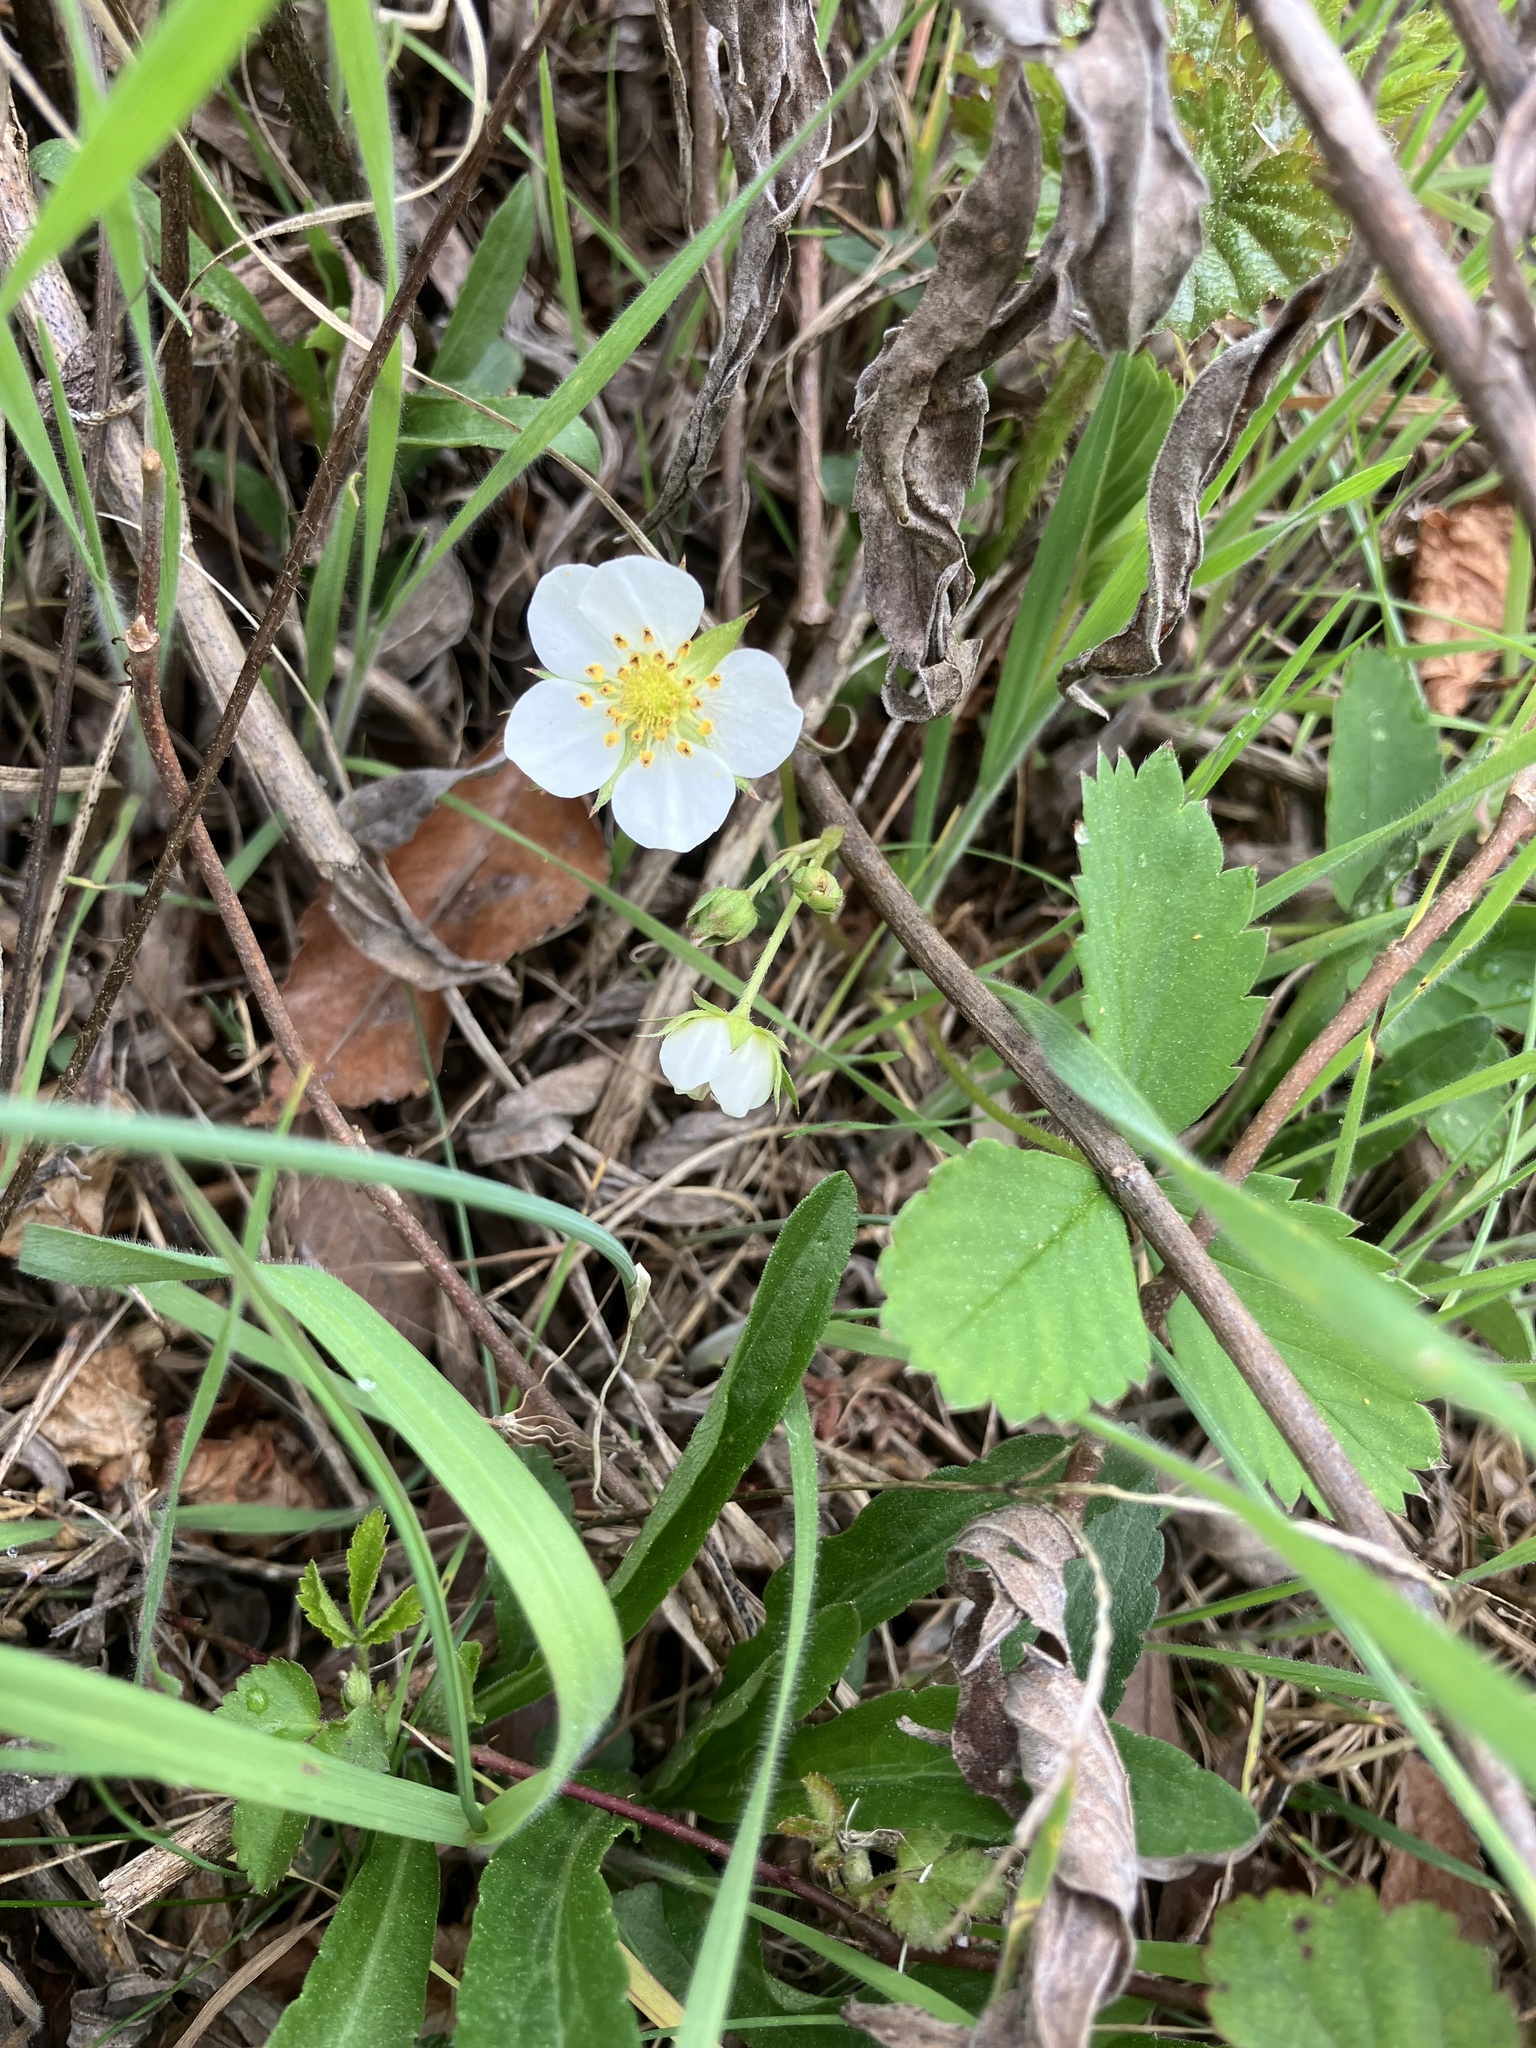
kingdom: Plantae
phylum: Tracheophyta
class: Magnoliopsida
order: Rosales
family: Rosaceae
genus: Fragaria
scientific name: Fragaria virginiana
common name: Thickleaved wild strawberry
